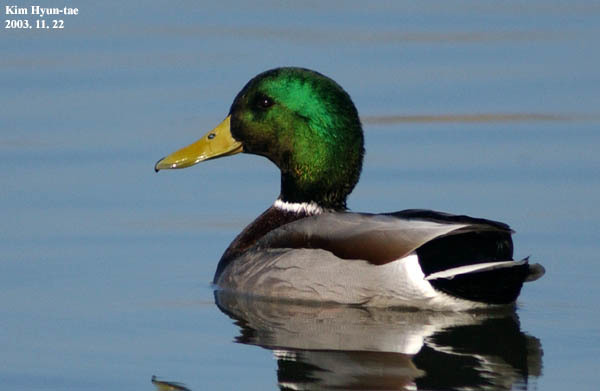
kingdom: Animalia
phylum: Chordata
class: Aves
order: Anseriformes
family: Anatidae
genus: Anas
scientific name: Anas platyrhynchos
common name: Mallard
